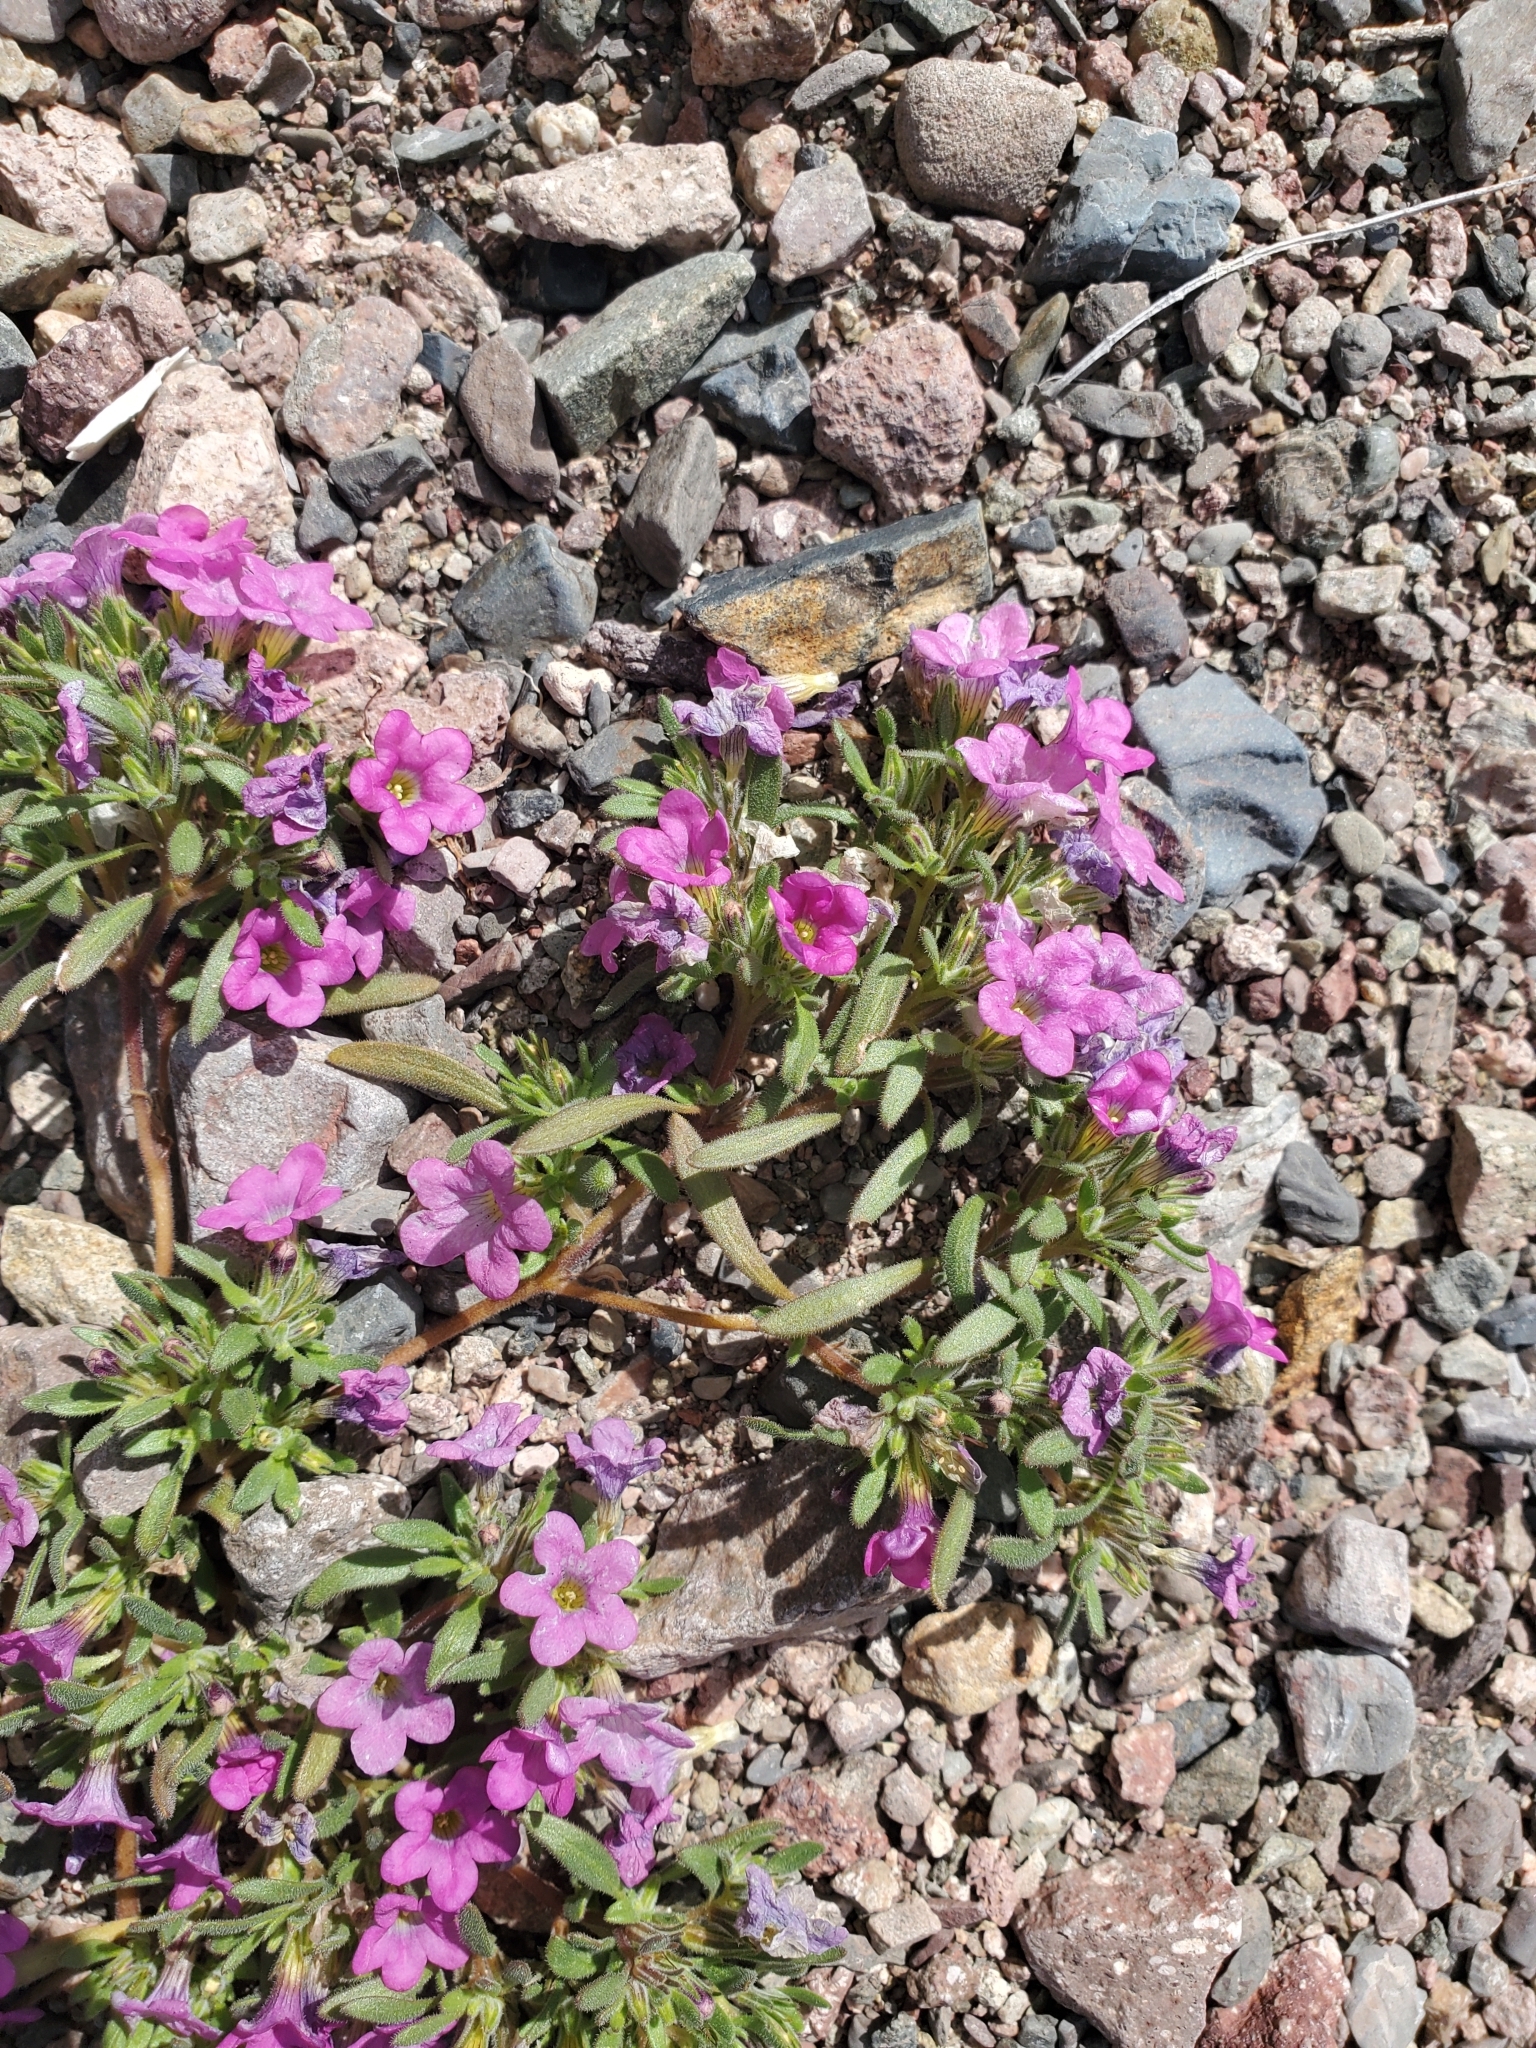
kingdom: Plantae
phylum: Tracheophyta
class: Magnoliopsida
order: Boraginales
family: Namaceae
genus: Nama
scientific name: Nama demissa
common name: Leafy nama
